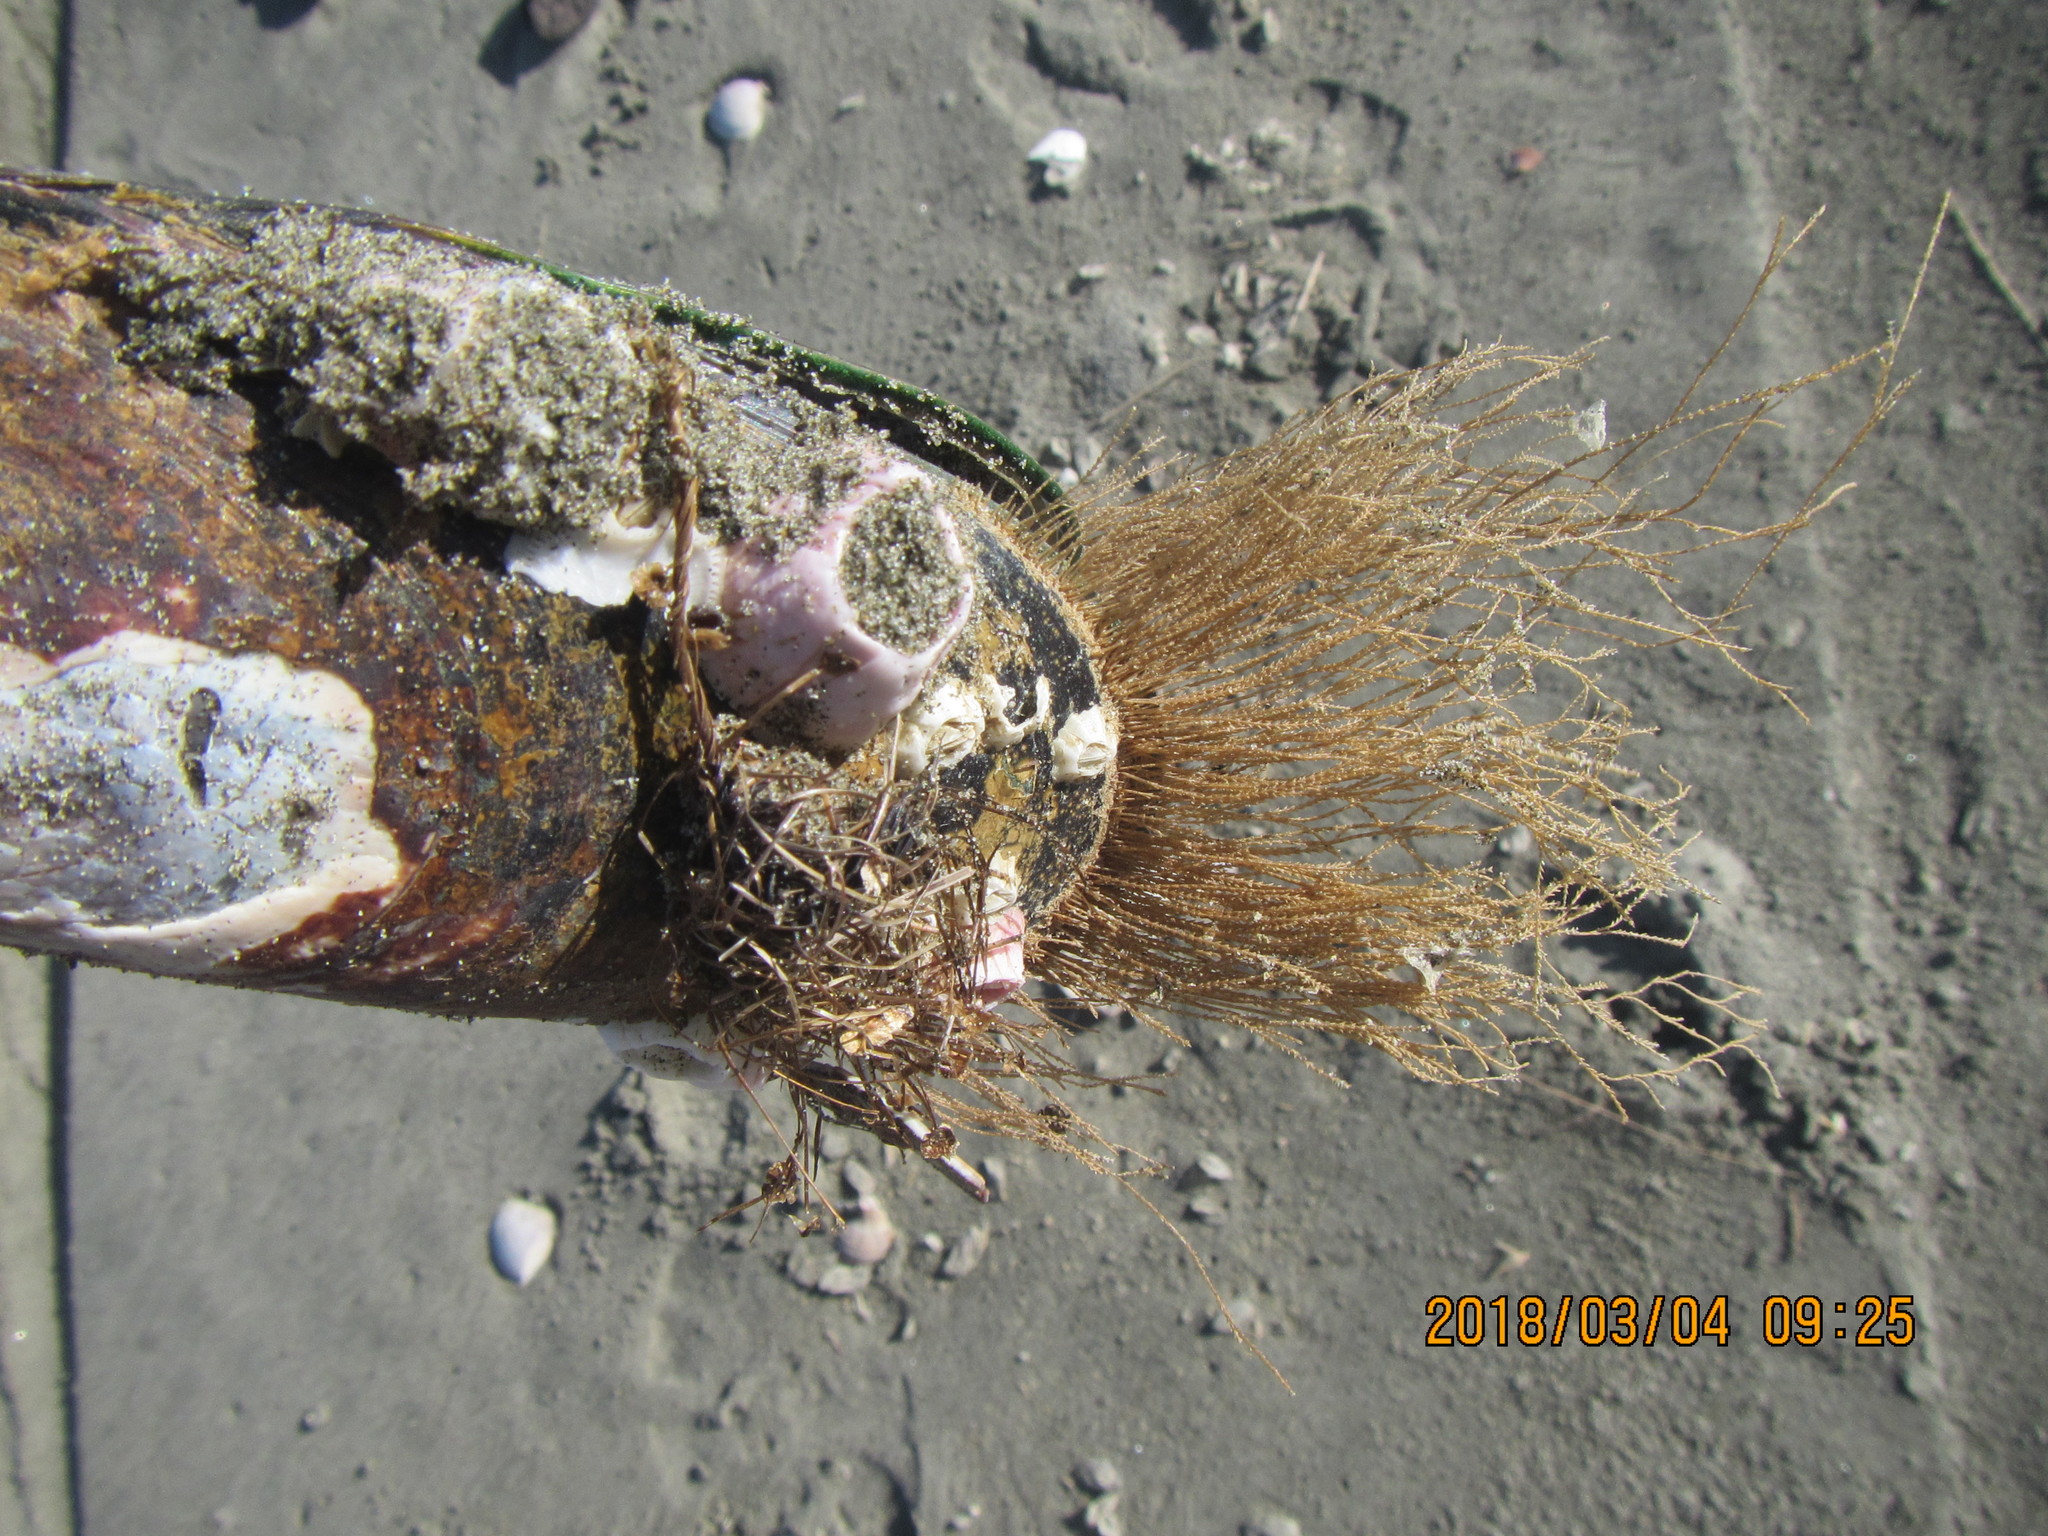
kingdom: Animalia
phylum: Cnidaria
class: Hydrozoa
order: Leptothecata
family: Sertulariidae
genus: Amphisbetia
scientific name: Amphisbetia bispinosa
